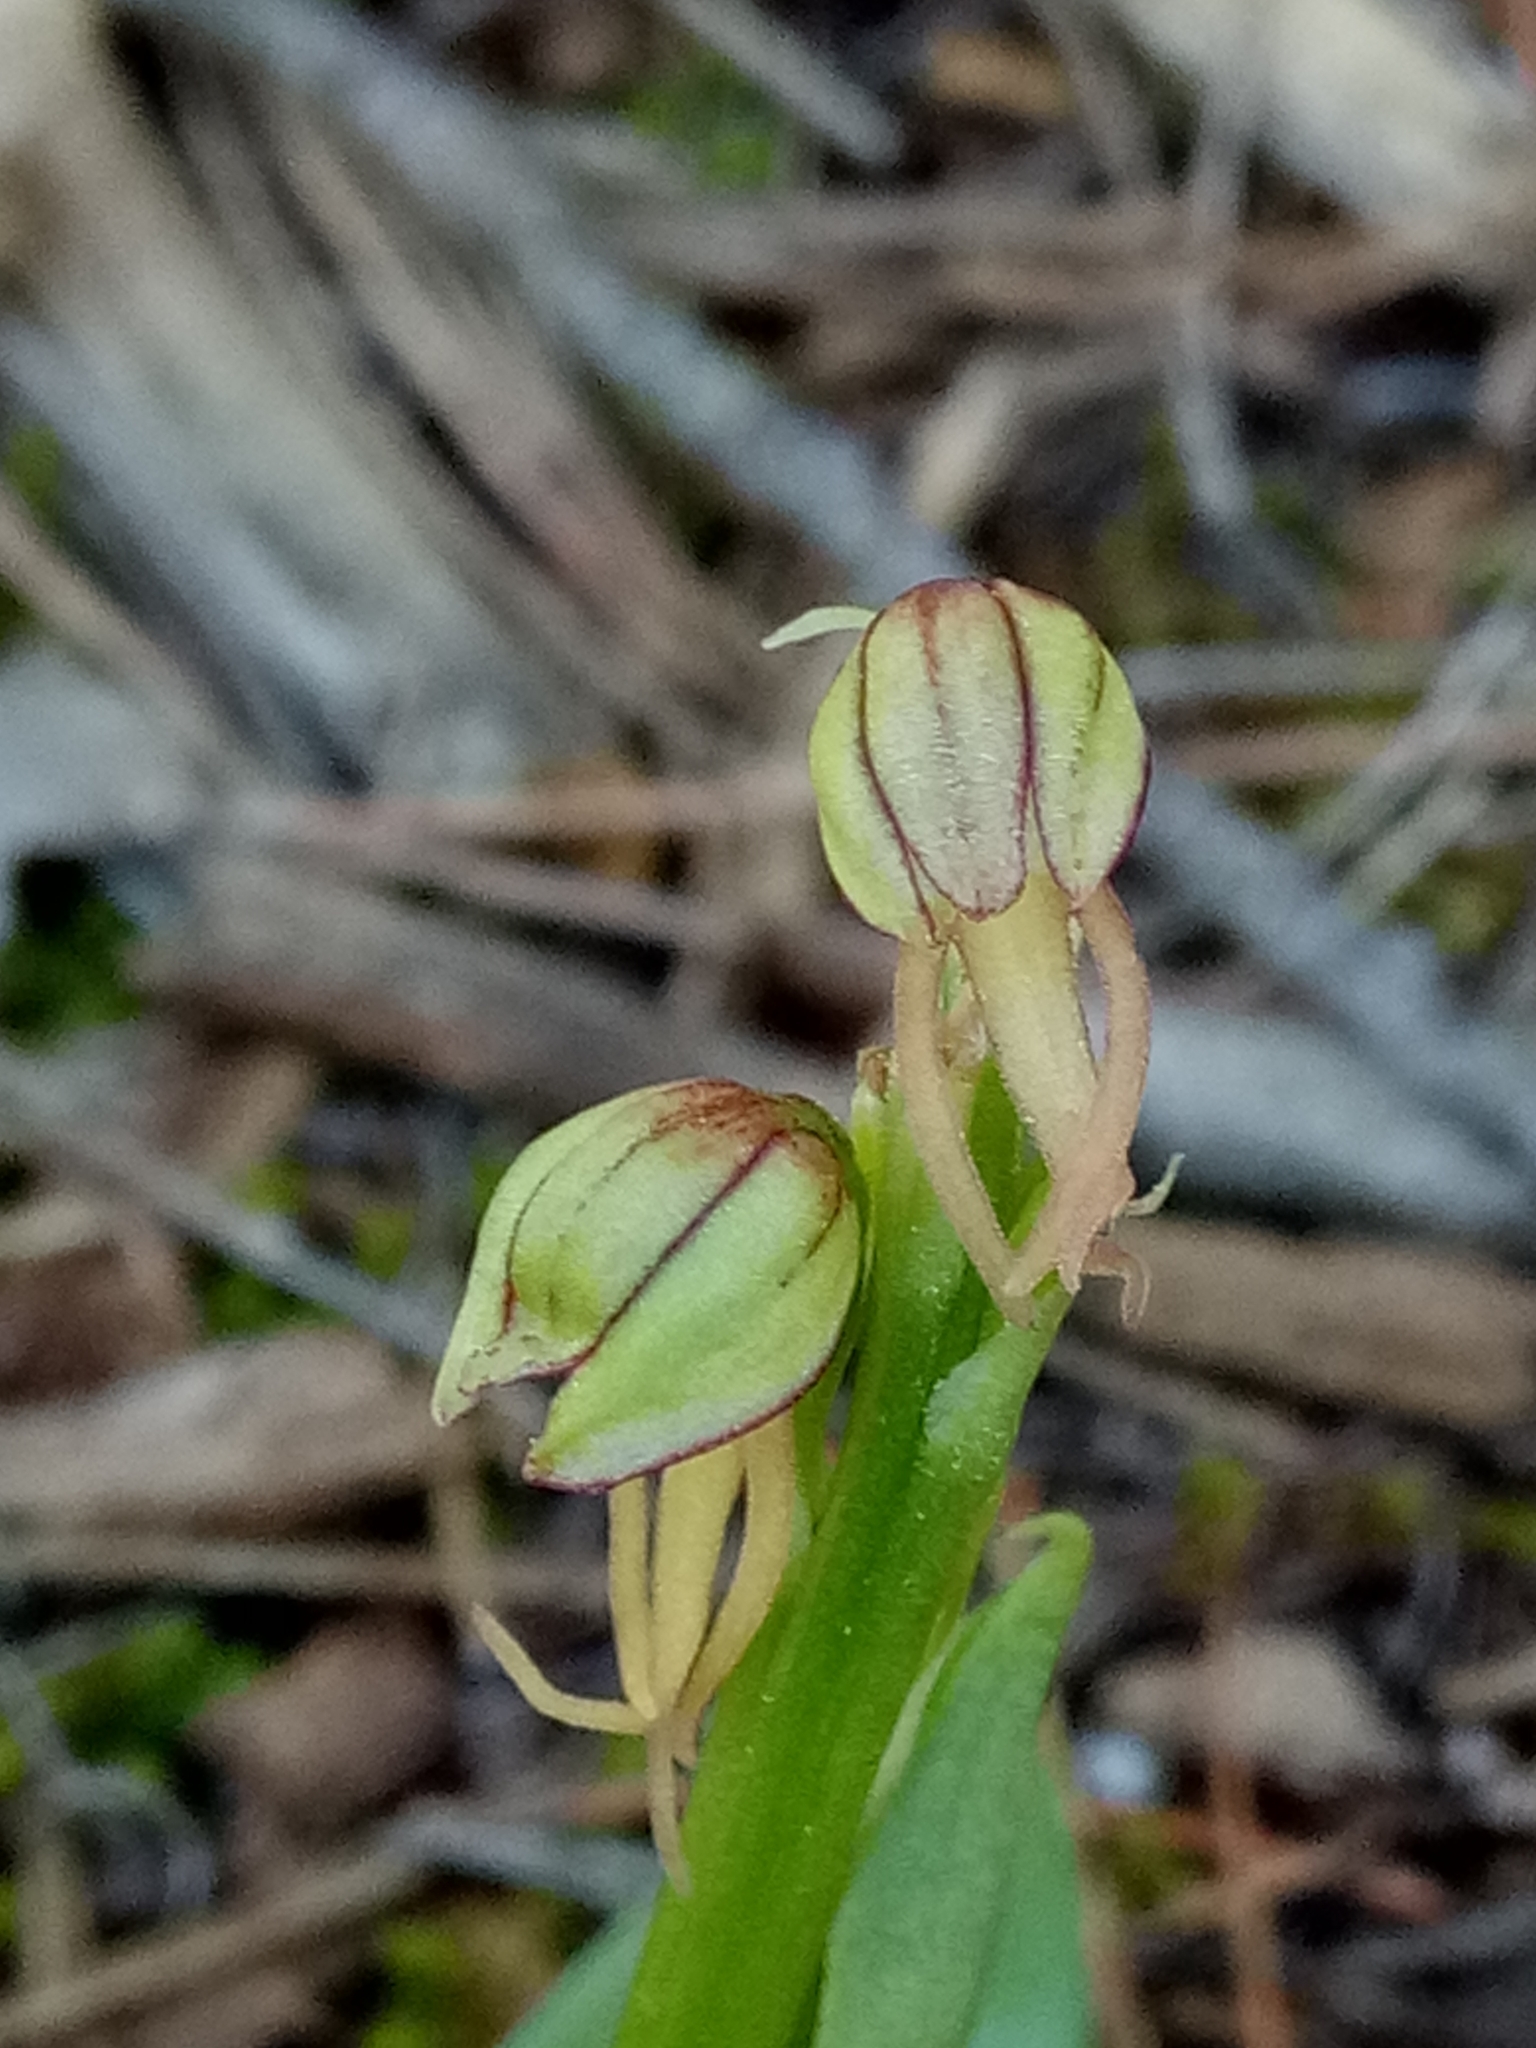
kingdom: Plantae
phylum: Tracheophyta
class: Liliopsida
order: Asparagales
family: Orchidaceae
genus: Orchis
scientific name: Orchis anthropophora
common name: Man orchid
